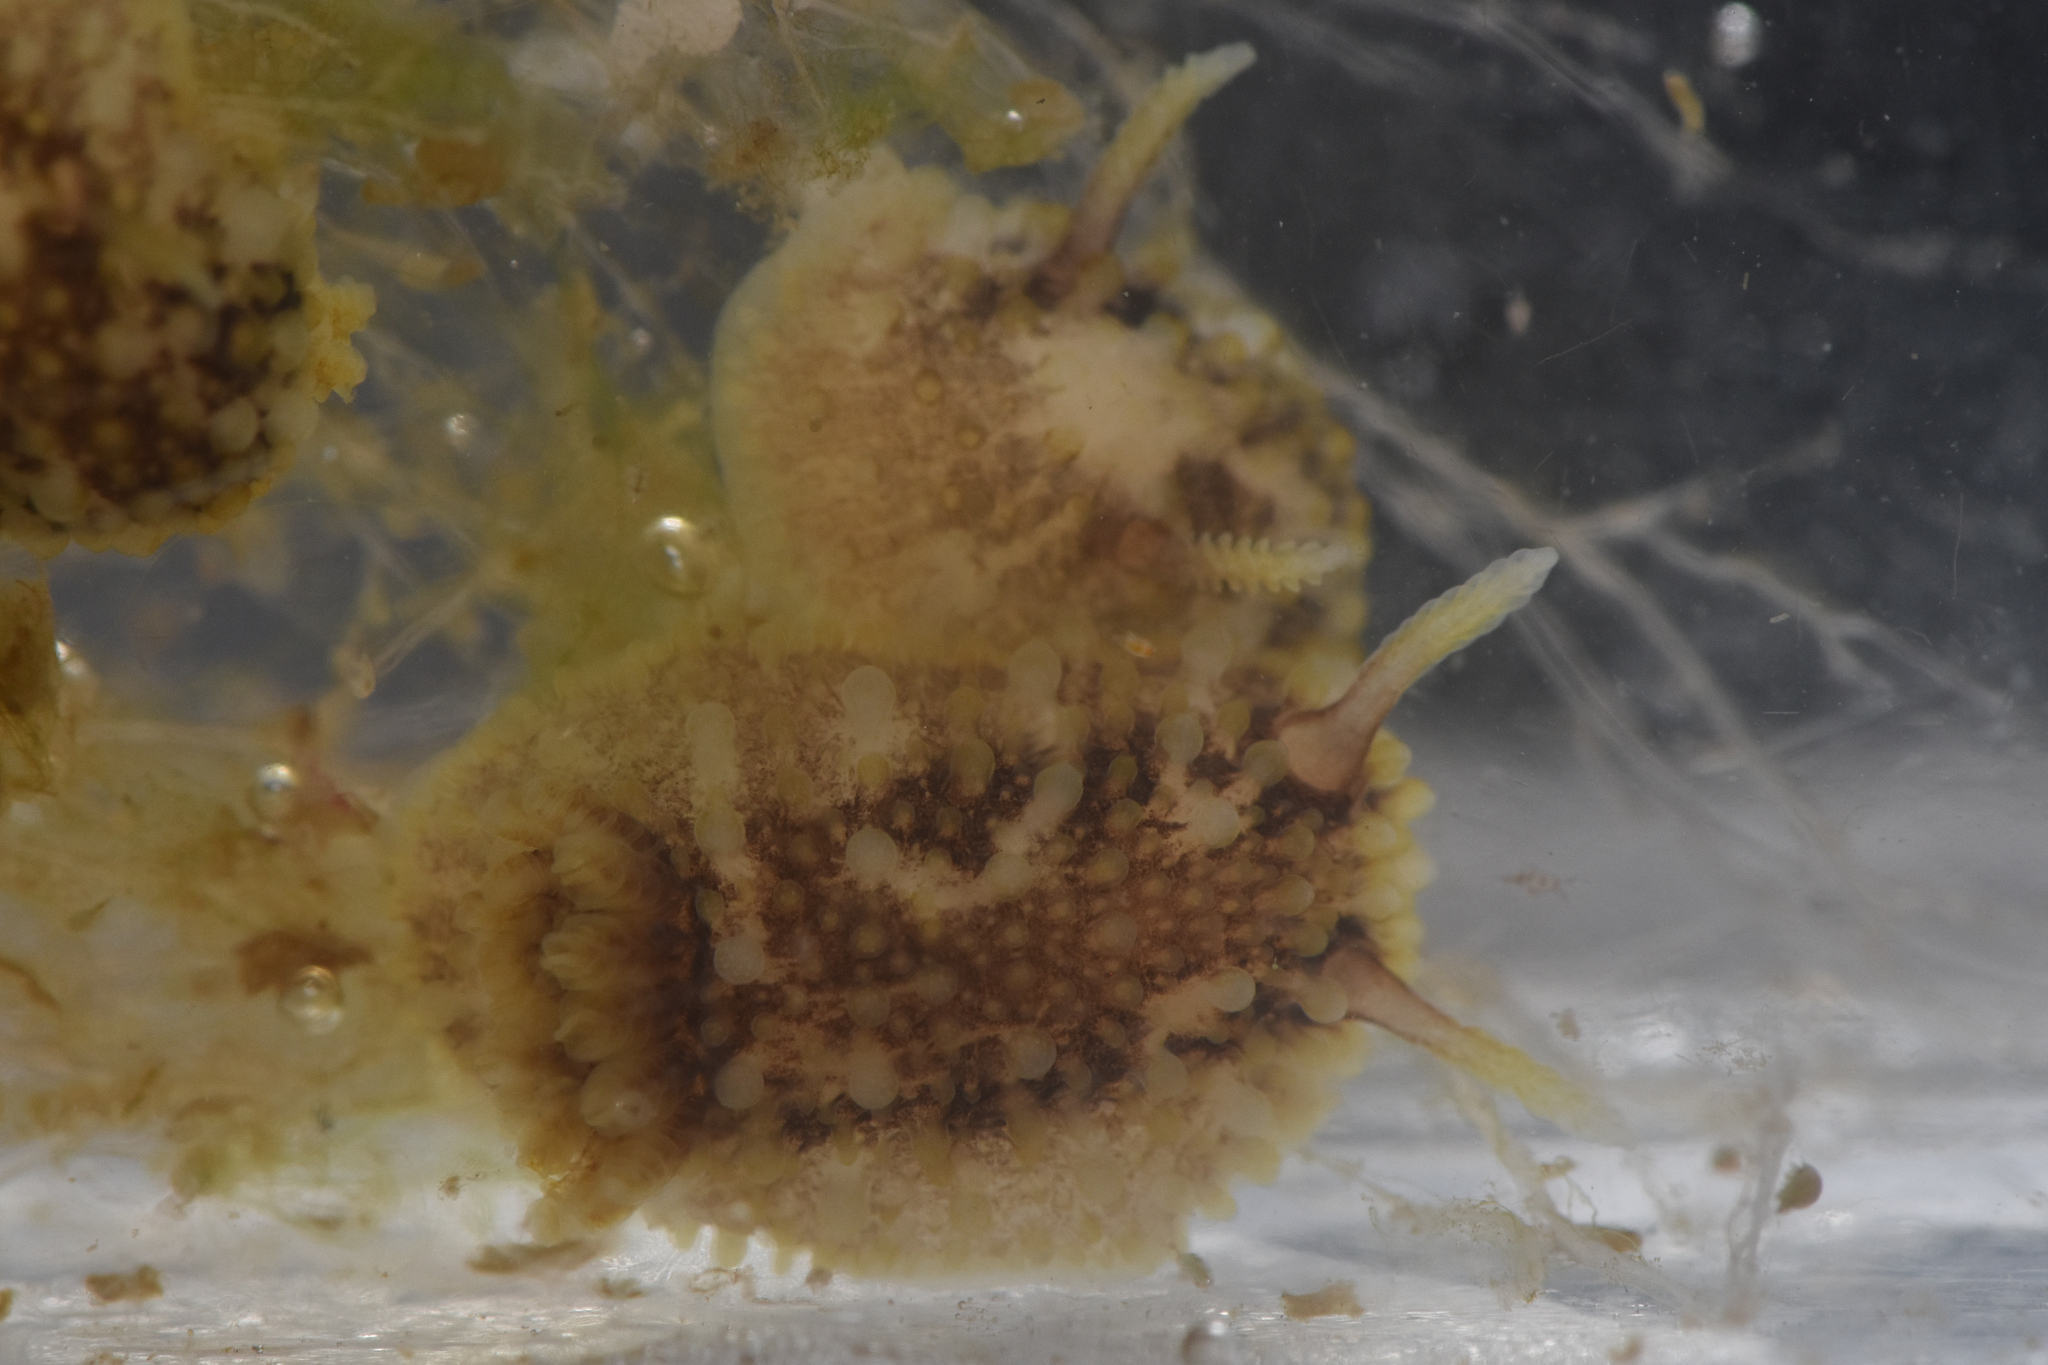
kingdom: Animalia
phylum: Mollusca
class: Gastropoda
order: Nudibranchia
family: Onchidorididae
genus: Onchidoris
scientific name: Onchidoris bilamellata
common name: Barnacle-eating onchidoris
